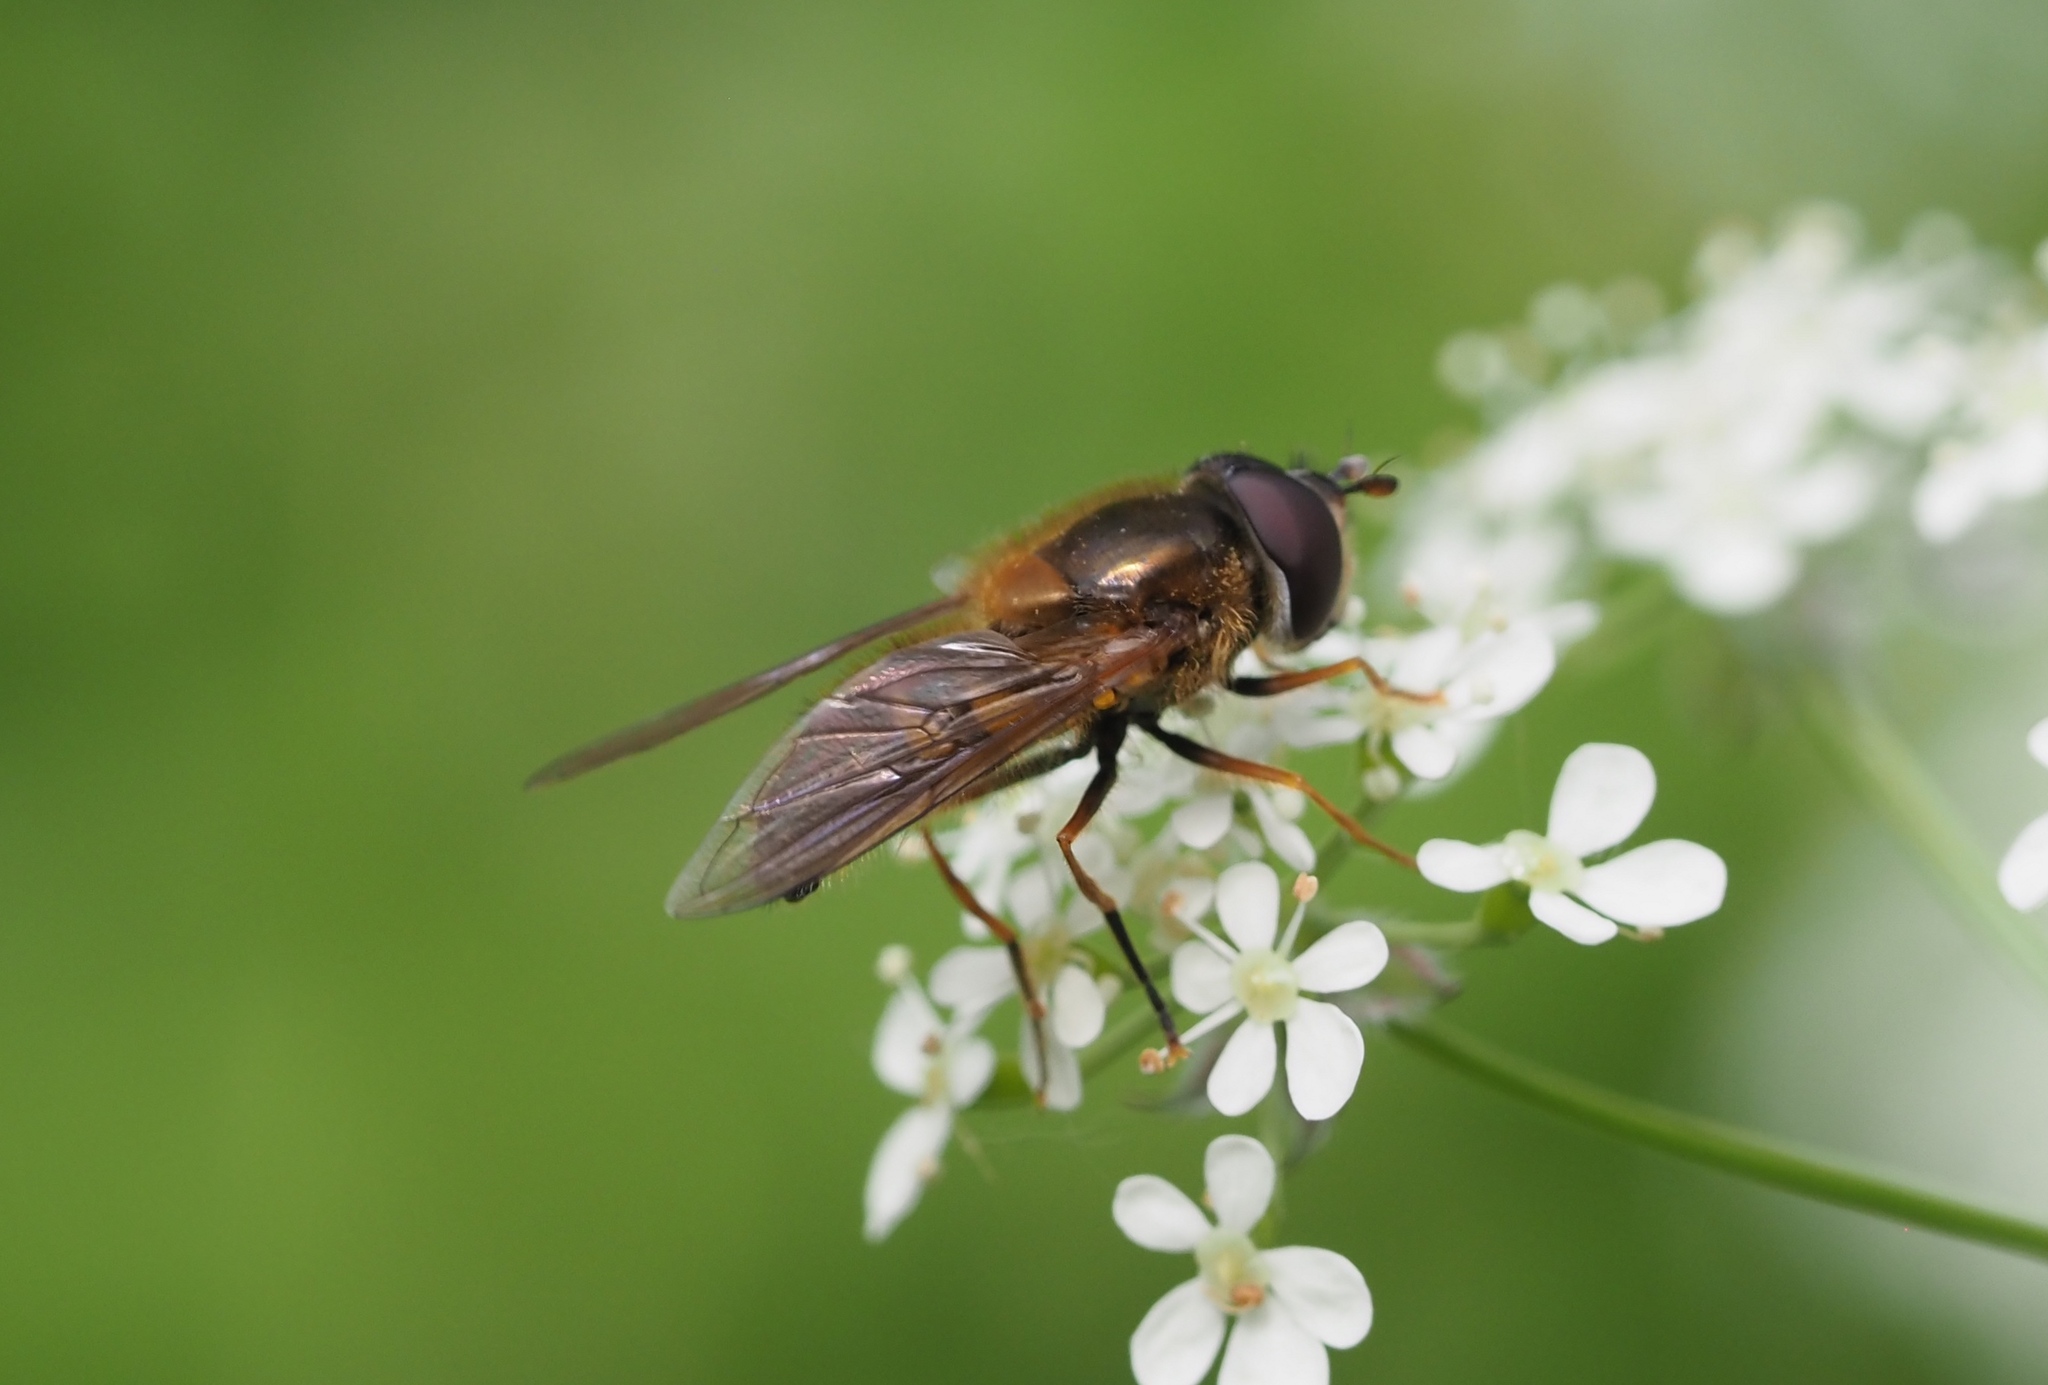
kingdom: Animalia
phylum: Arthropoda
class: Insecta
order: Diptera
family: Syrphidae
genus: Epistrophe
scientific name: Epistrophe eligans
